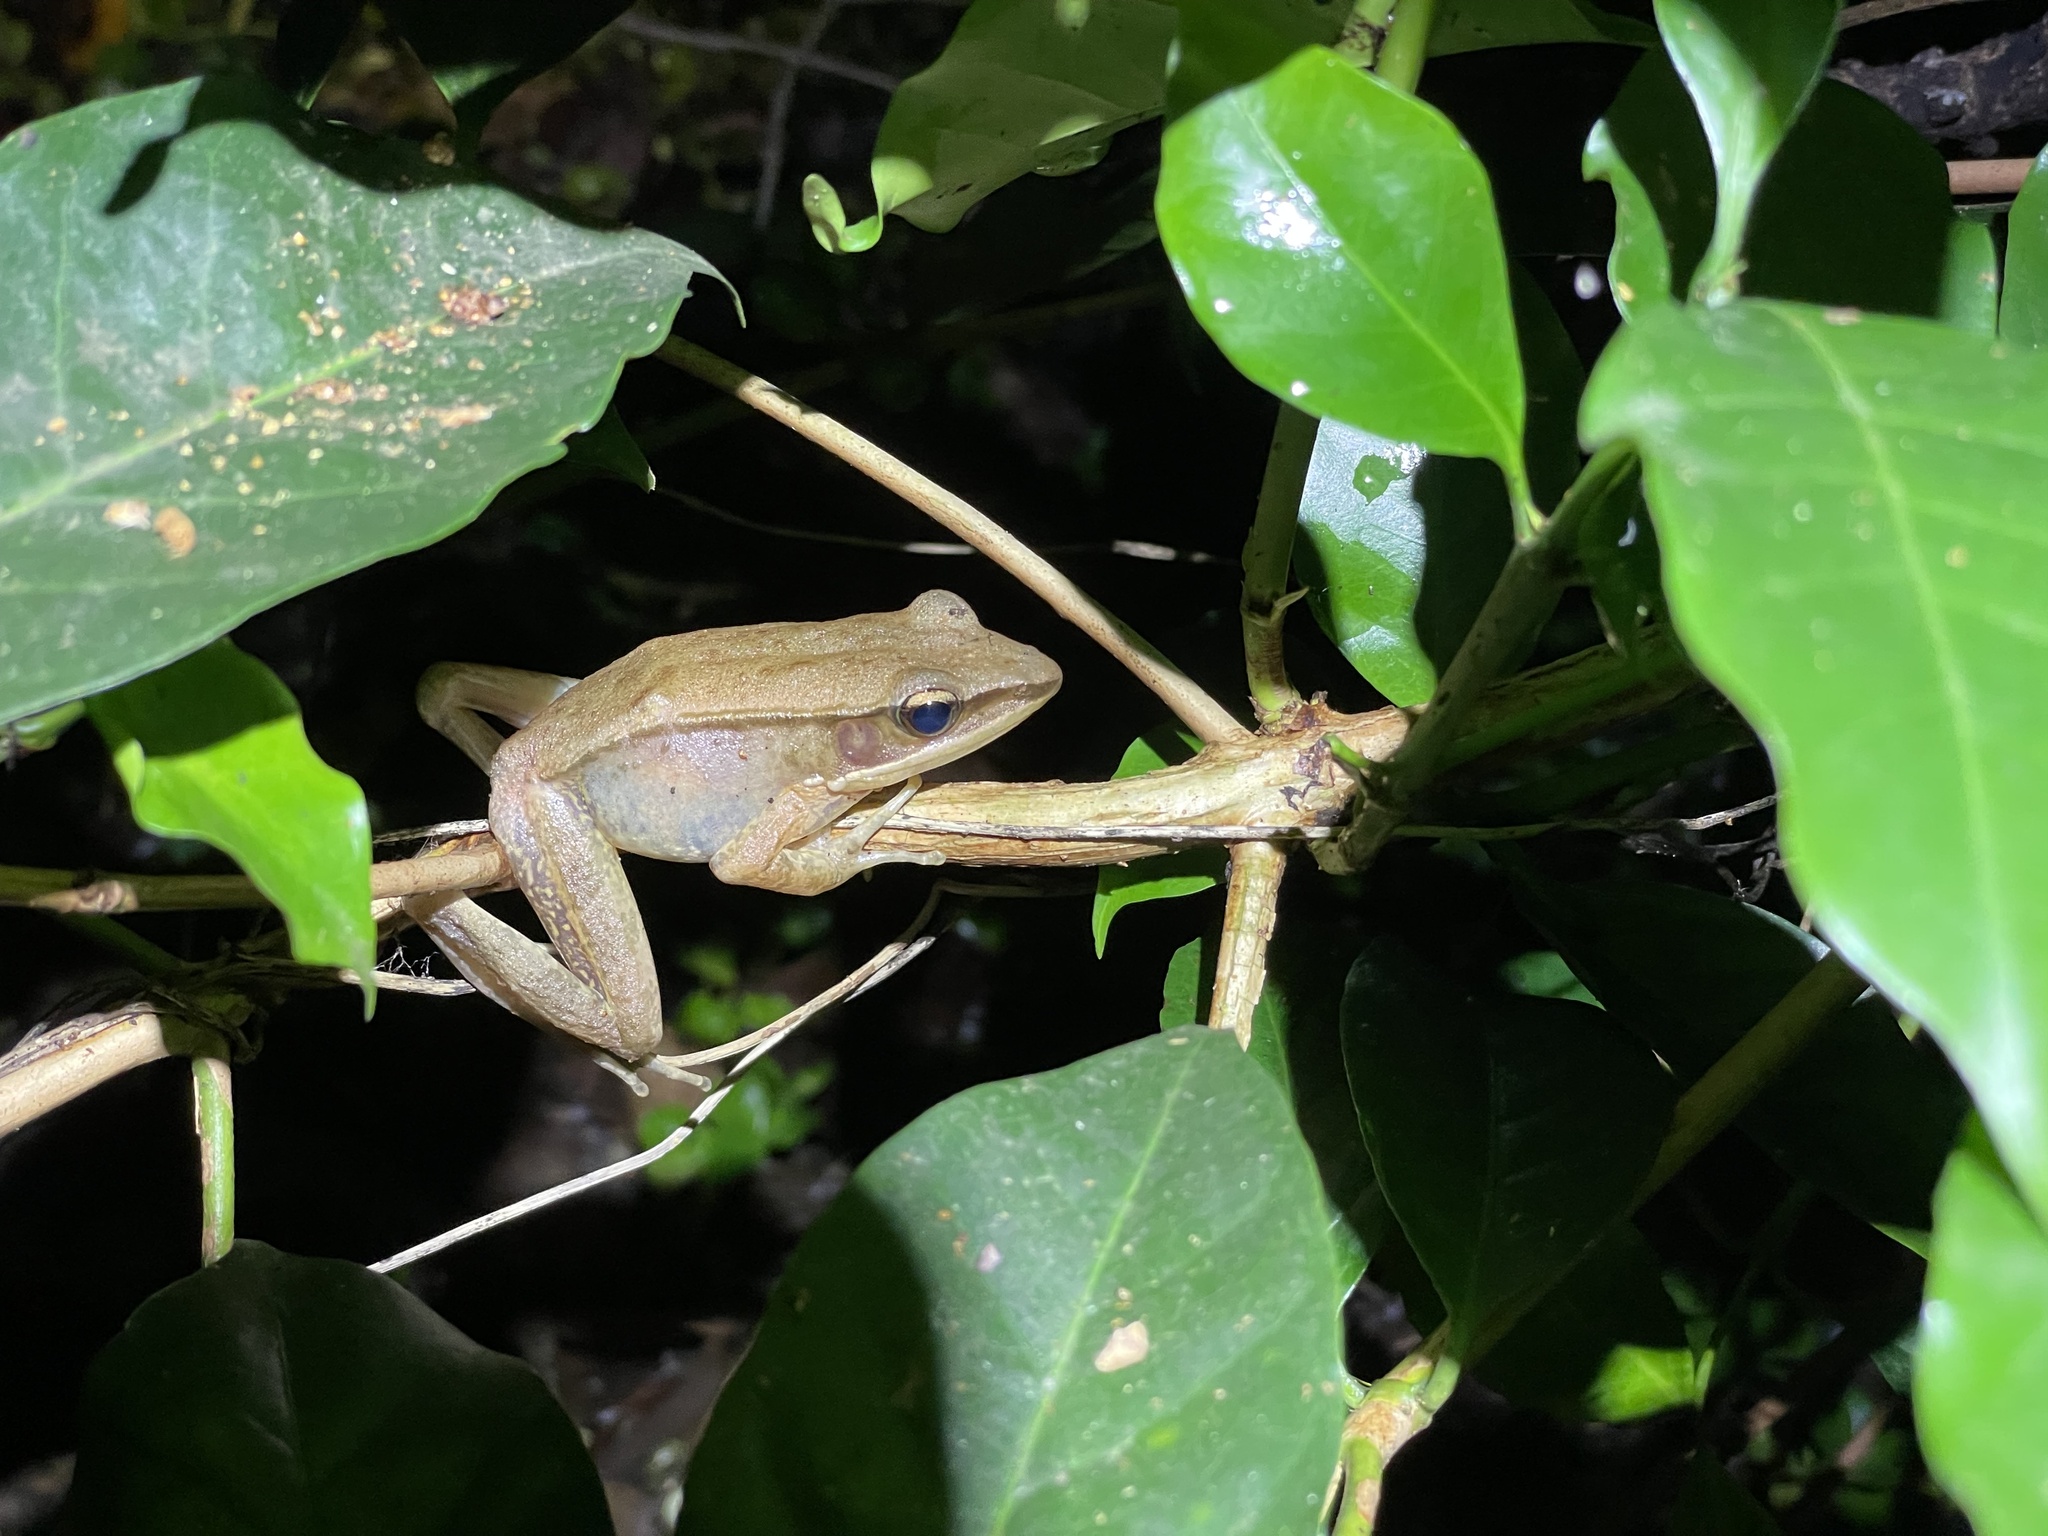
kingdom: Animalia
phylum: Chordata
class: Amphibia
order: Anura
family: Ranidae
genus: Indosylvirana
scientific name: Indosylvirana indica
